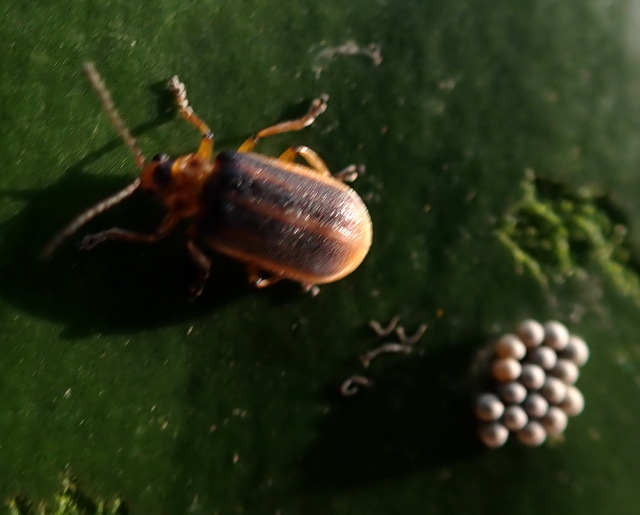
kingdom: Animalia
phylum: Arthropoda
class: Insecta
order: Coleoptera
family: Chrysomelidae
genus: Galerucella
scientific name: Galerucella nymphaeae
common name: Leaf beetle
